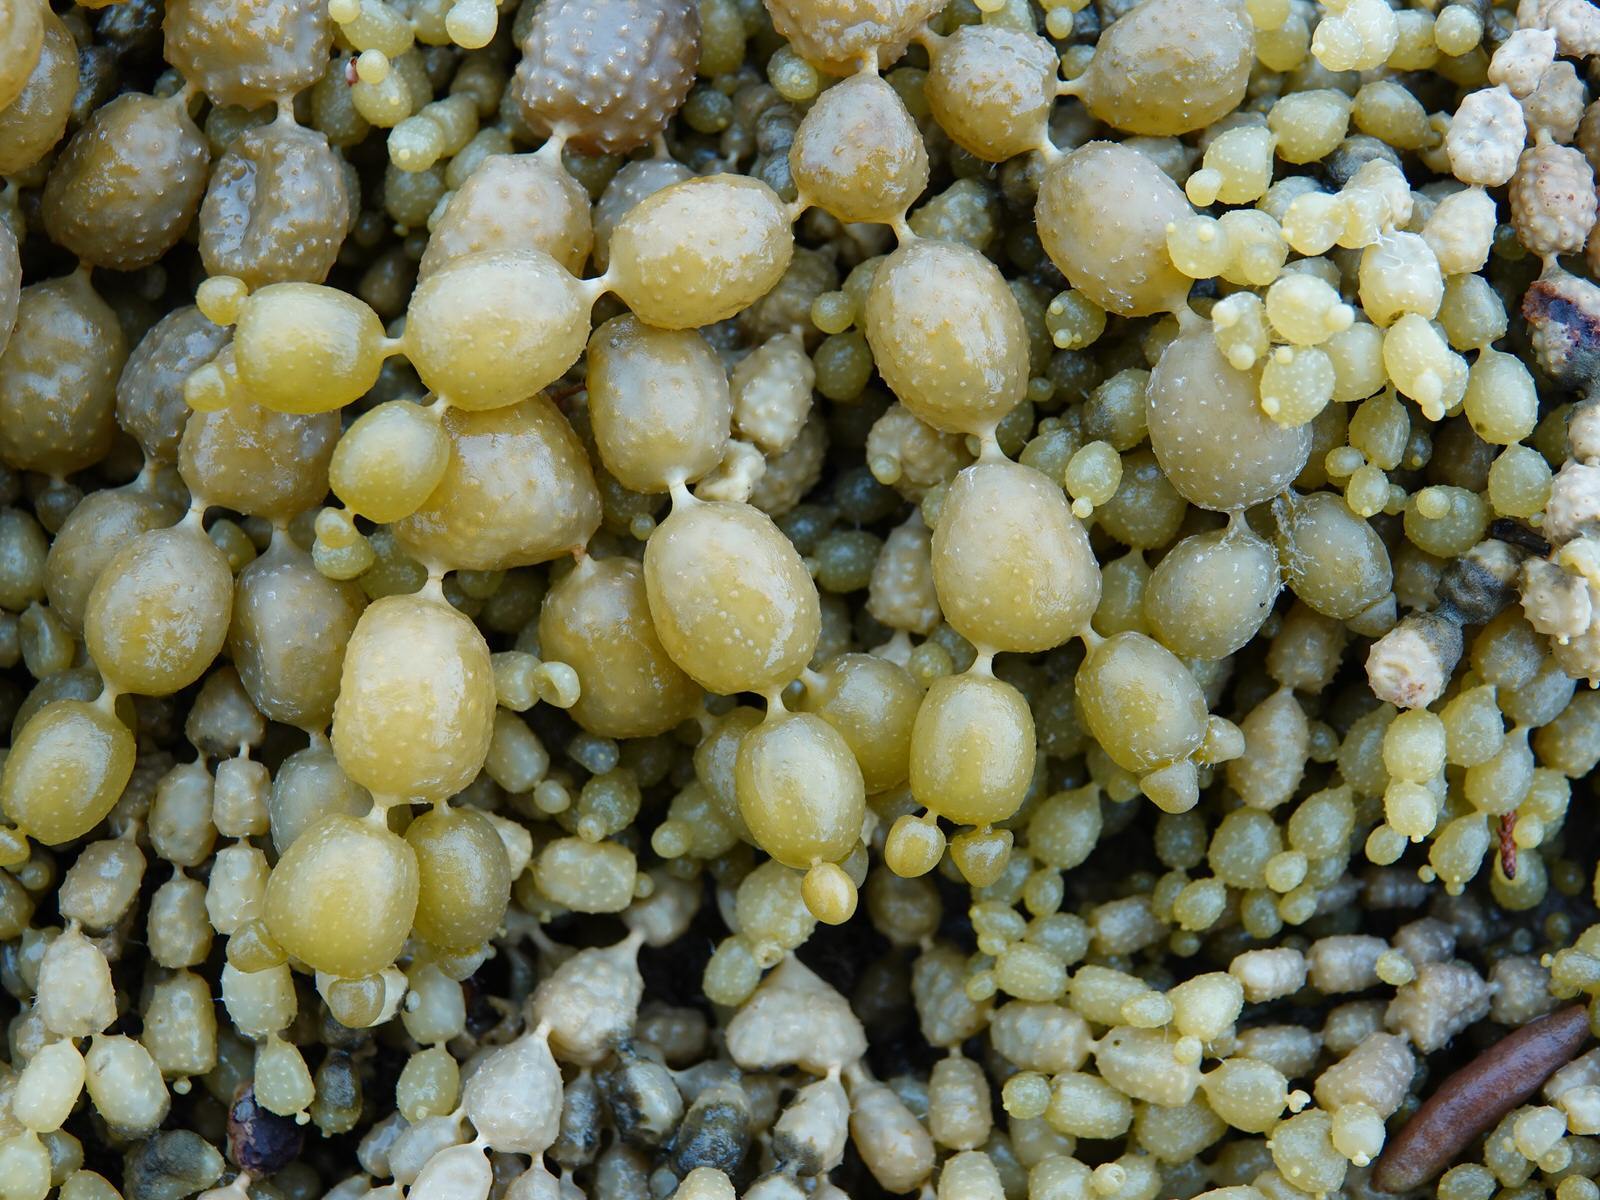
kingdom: Chromista
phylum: Ochrophyta
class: Phaeophyceae
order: Fucales
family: Hormosiraceae
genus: Hormosira
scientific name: Hormosira banksii
